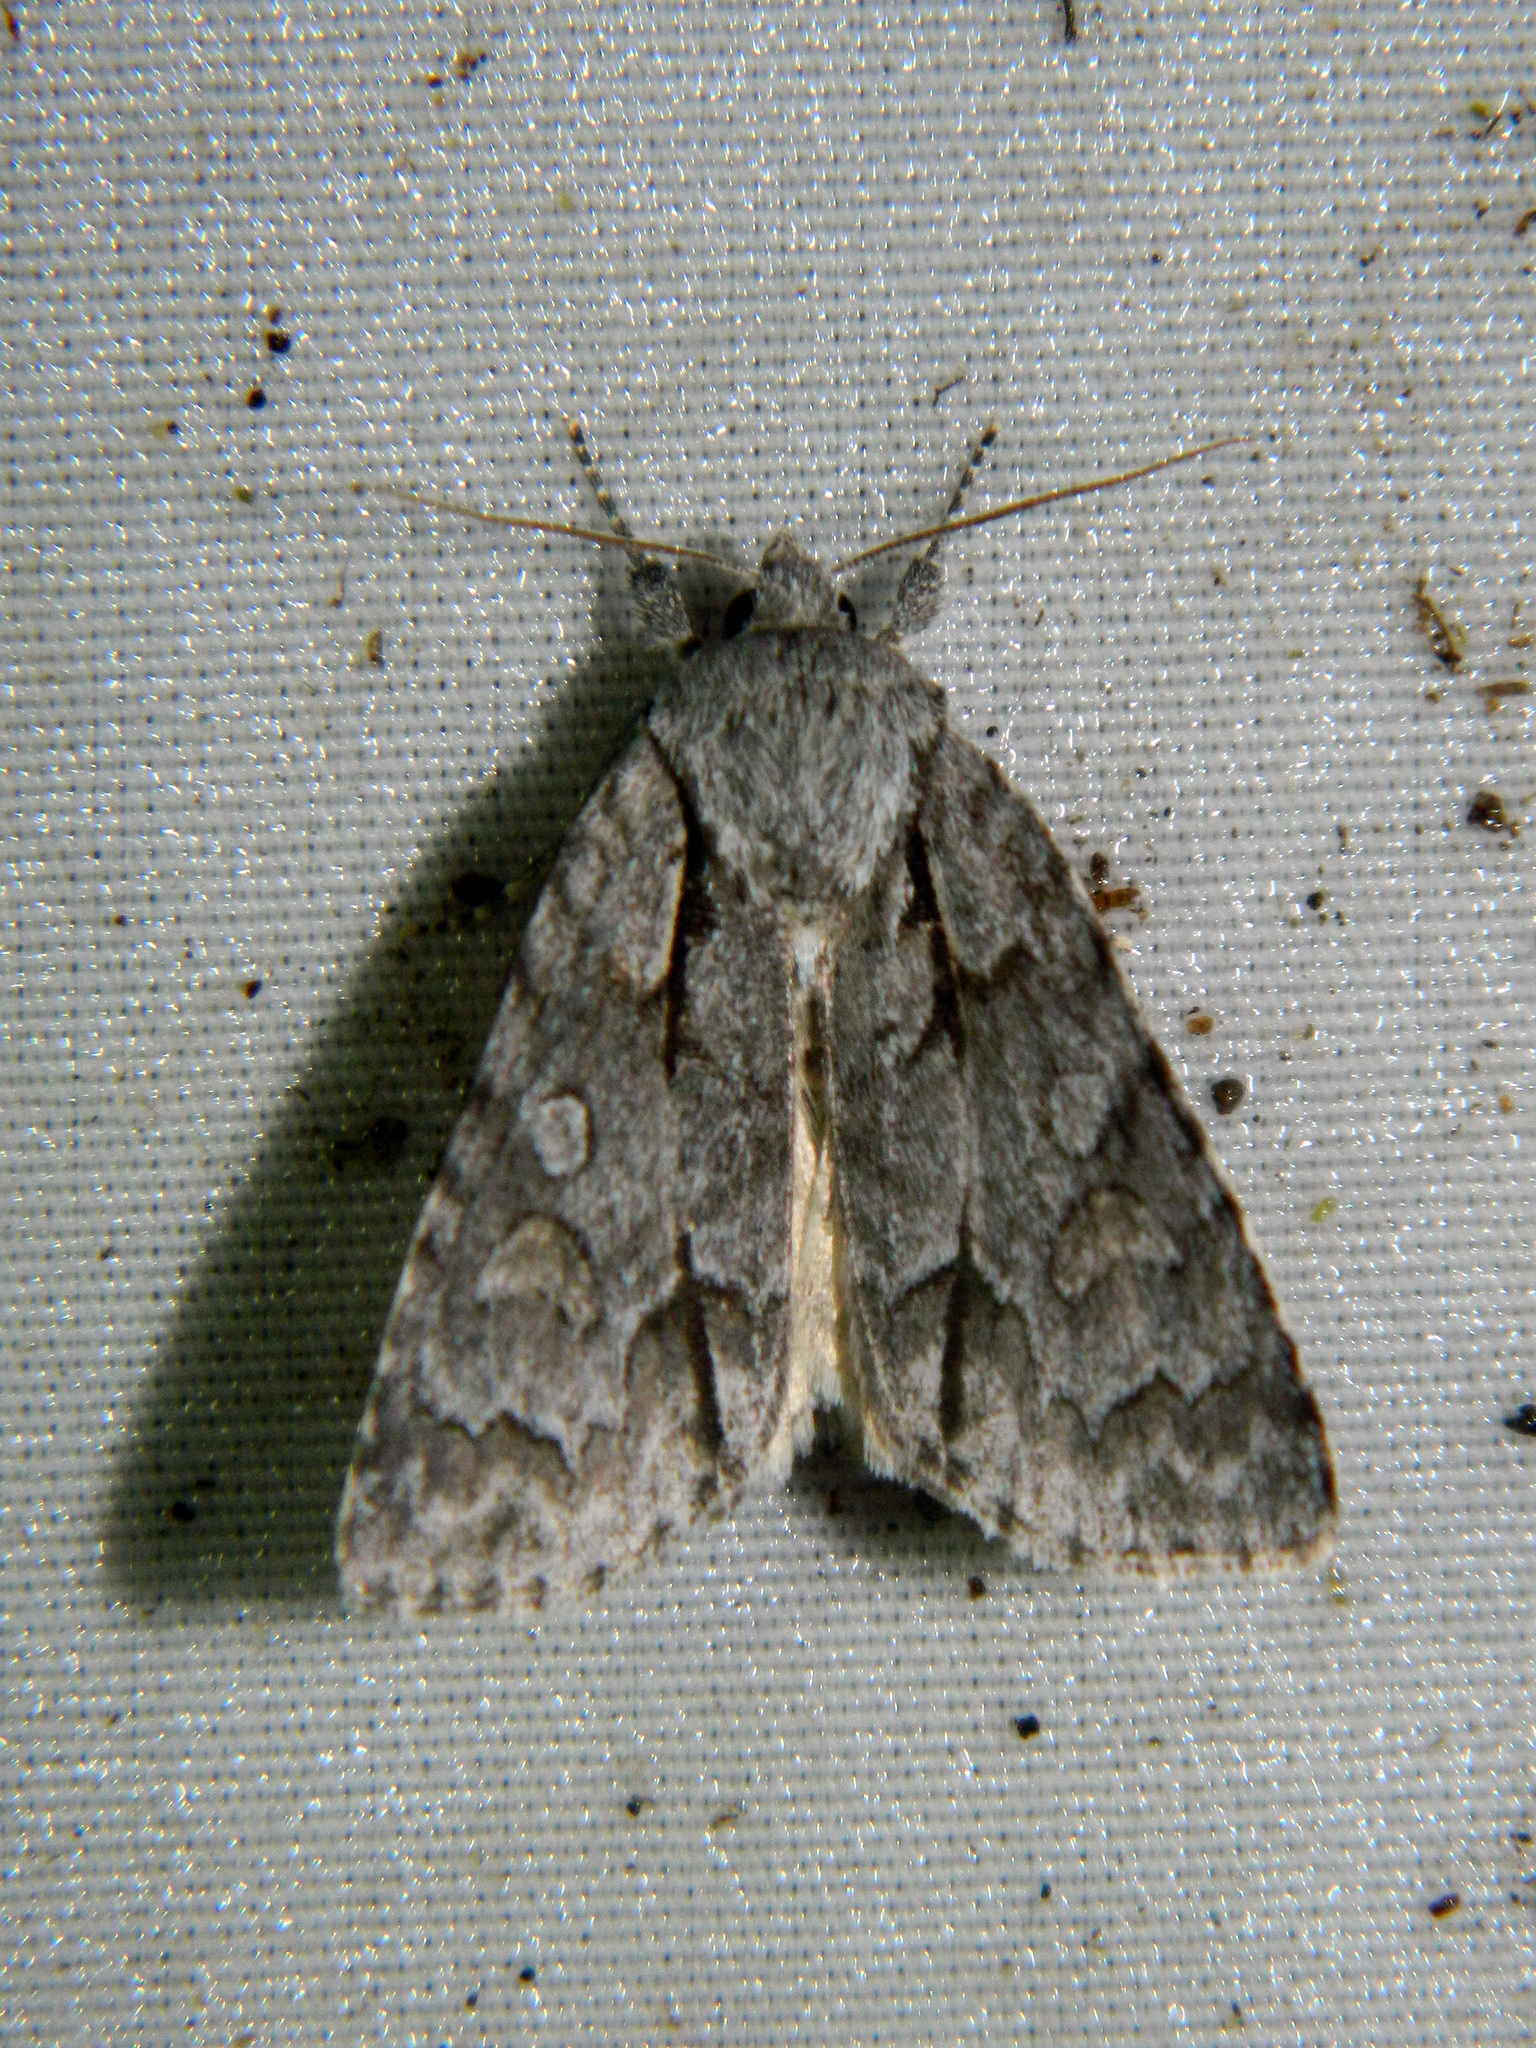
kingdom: Animalia
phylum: Arthropoda
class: Insecta
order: Lepidoptera
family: Noctuidae
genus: Acronicta
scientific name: Acronicta grisea
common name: Gray dagger
